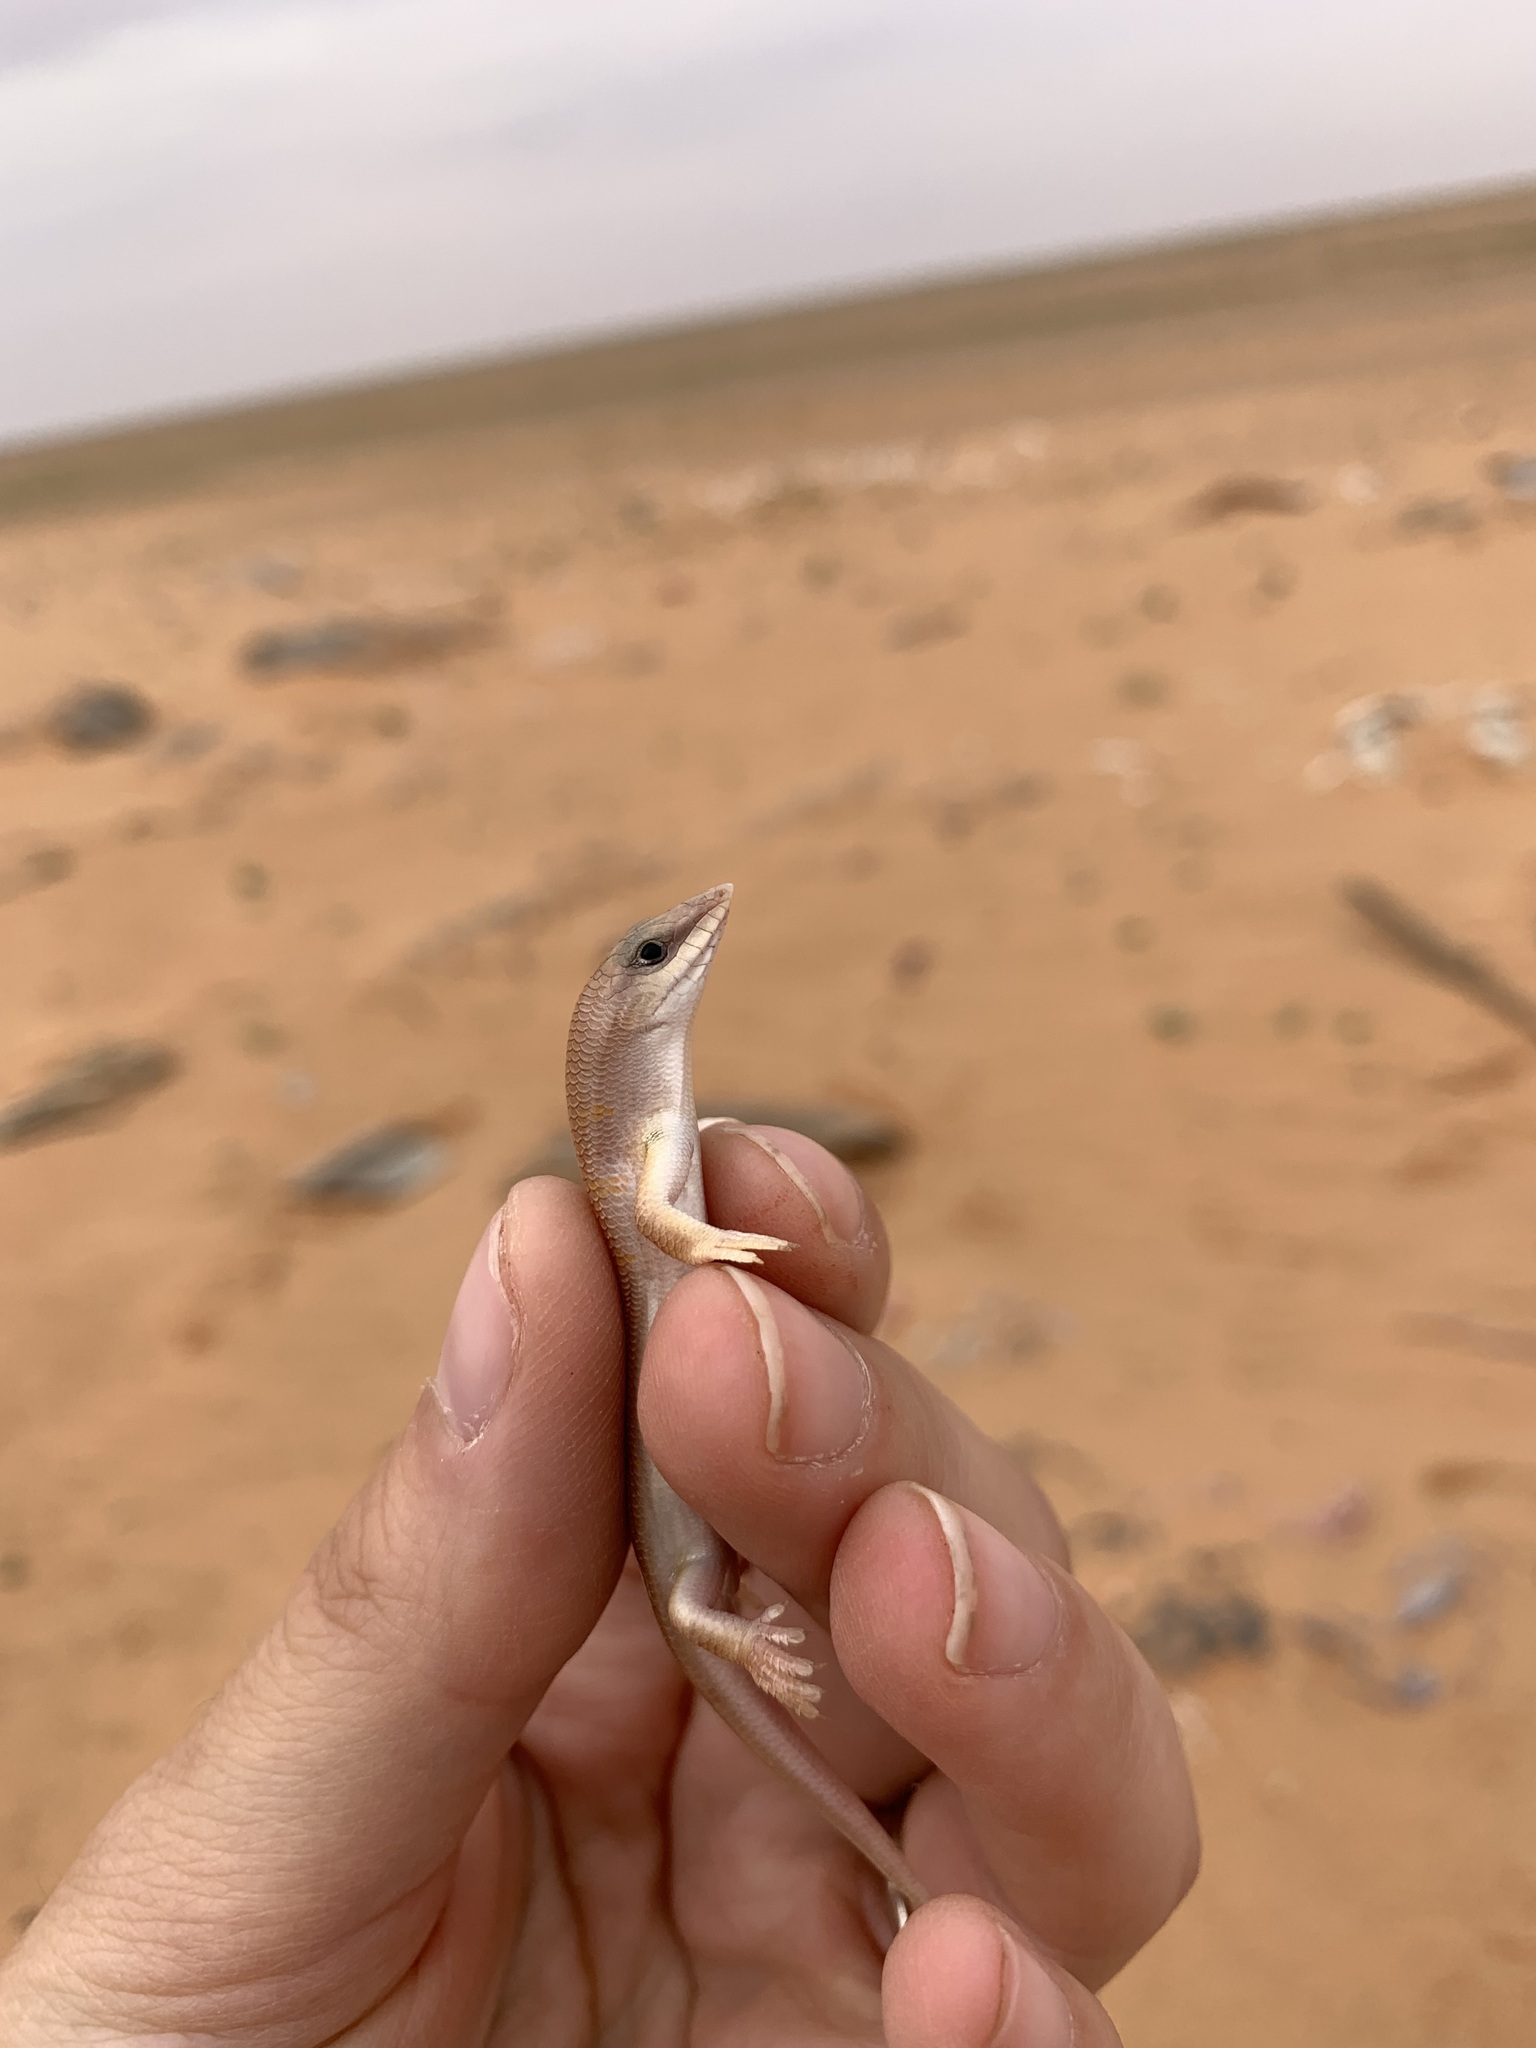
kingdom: Animalia
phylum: Chordata
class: Squamata
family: Scincidae
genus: Scincus
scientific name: Scincus conirostris
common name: Sandfish skink
